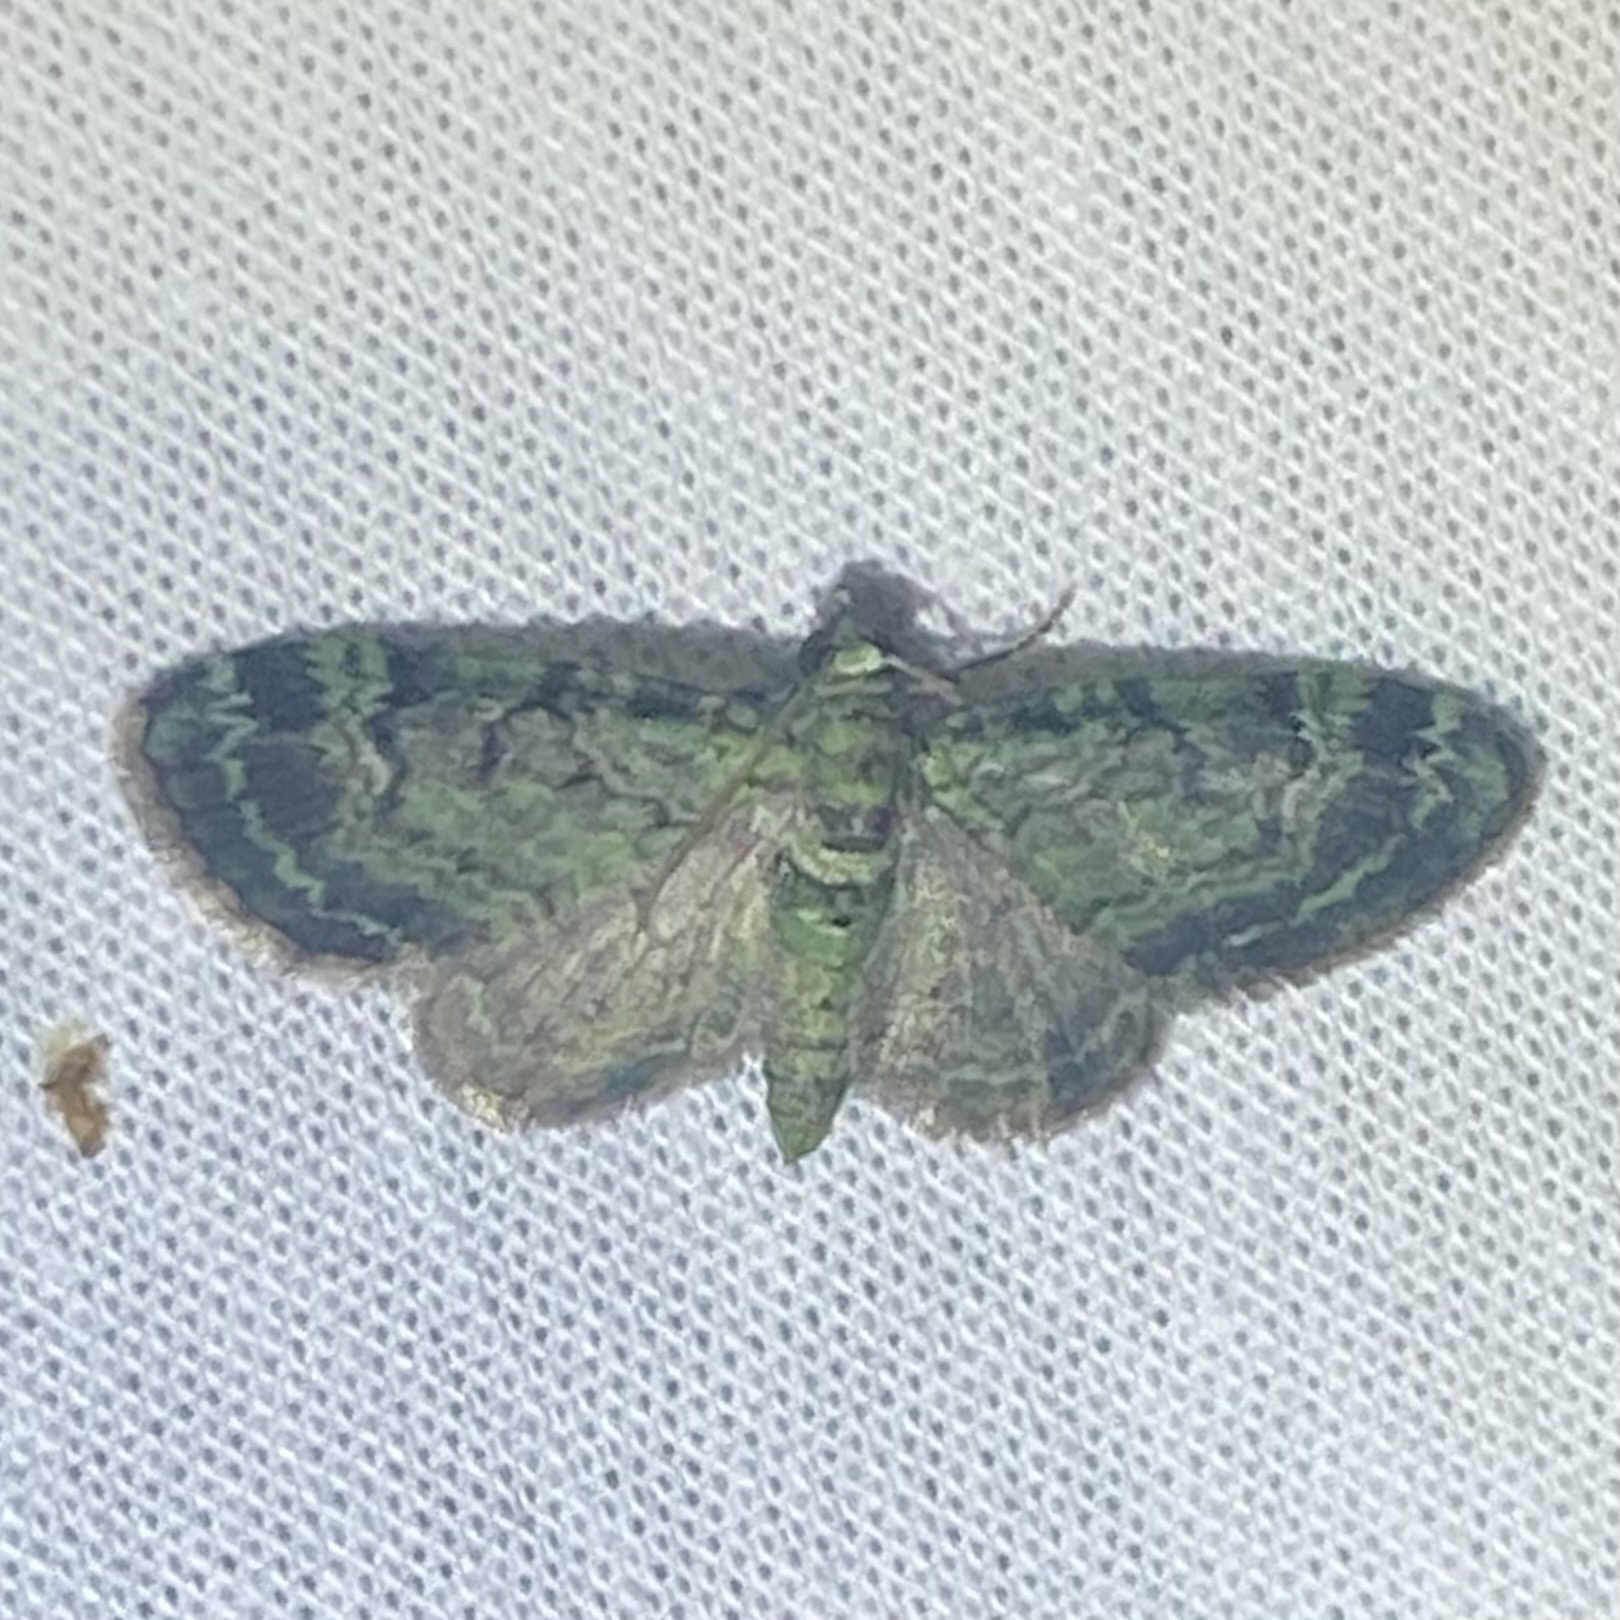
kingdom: Animalia
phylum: Arthropoda
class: Insecta
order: Lepidoptera
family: Geometridae
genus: Pasiphila
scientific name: Pasiphila rectangulata
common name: Green pug
